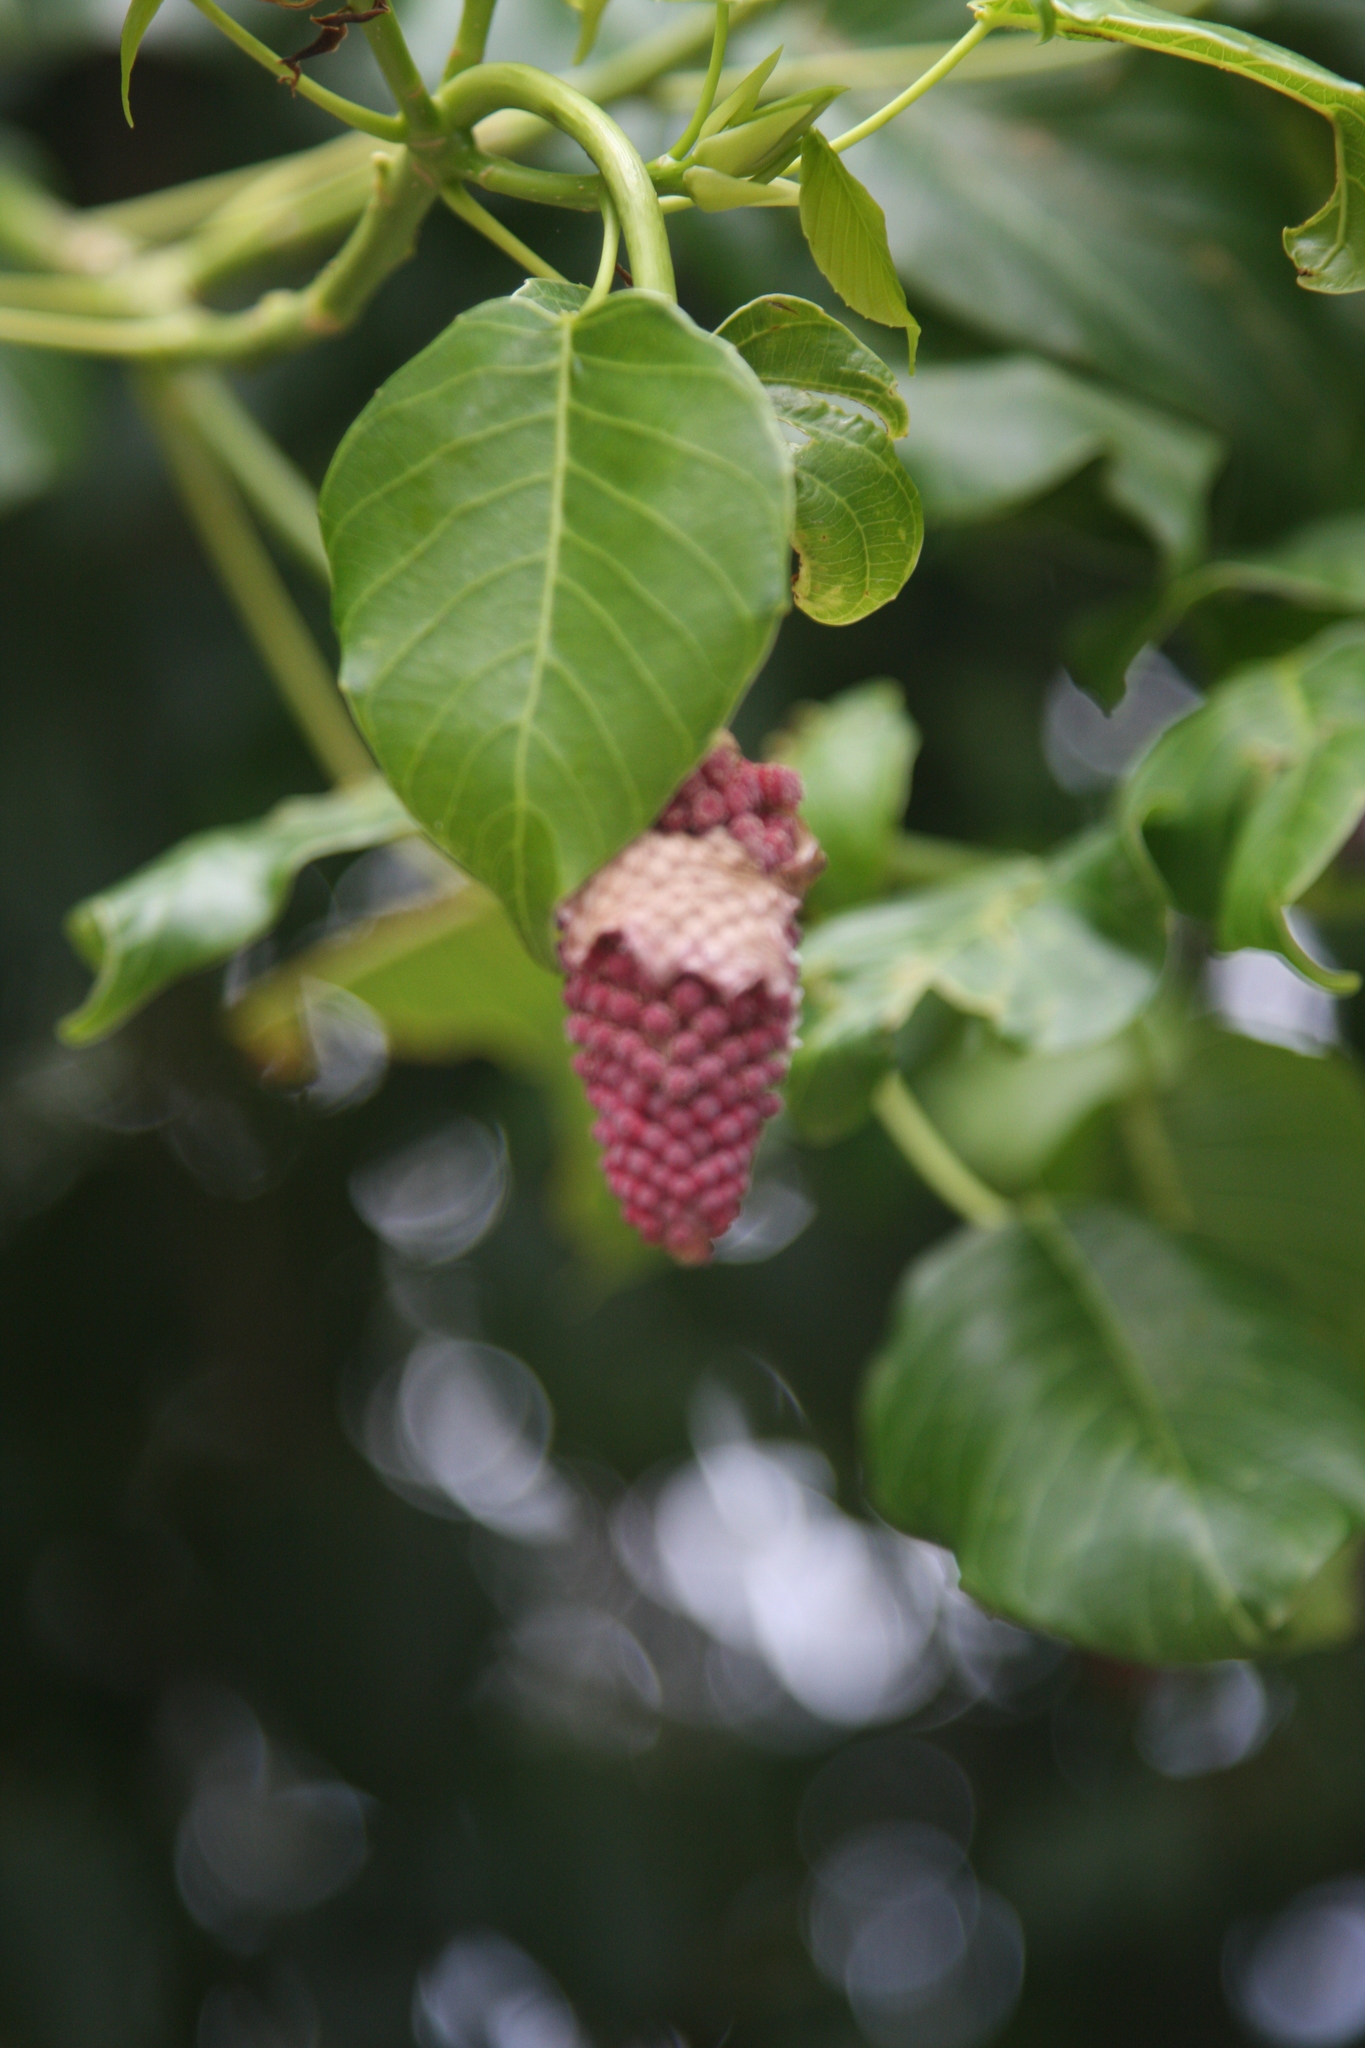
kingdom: Plantae
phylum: Tracheophyta
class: Magnoliopsida
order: Malpighiales
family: Euphorbiaceae
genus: Hura
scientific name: Hura crepitans
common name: Sandboxtree
